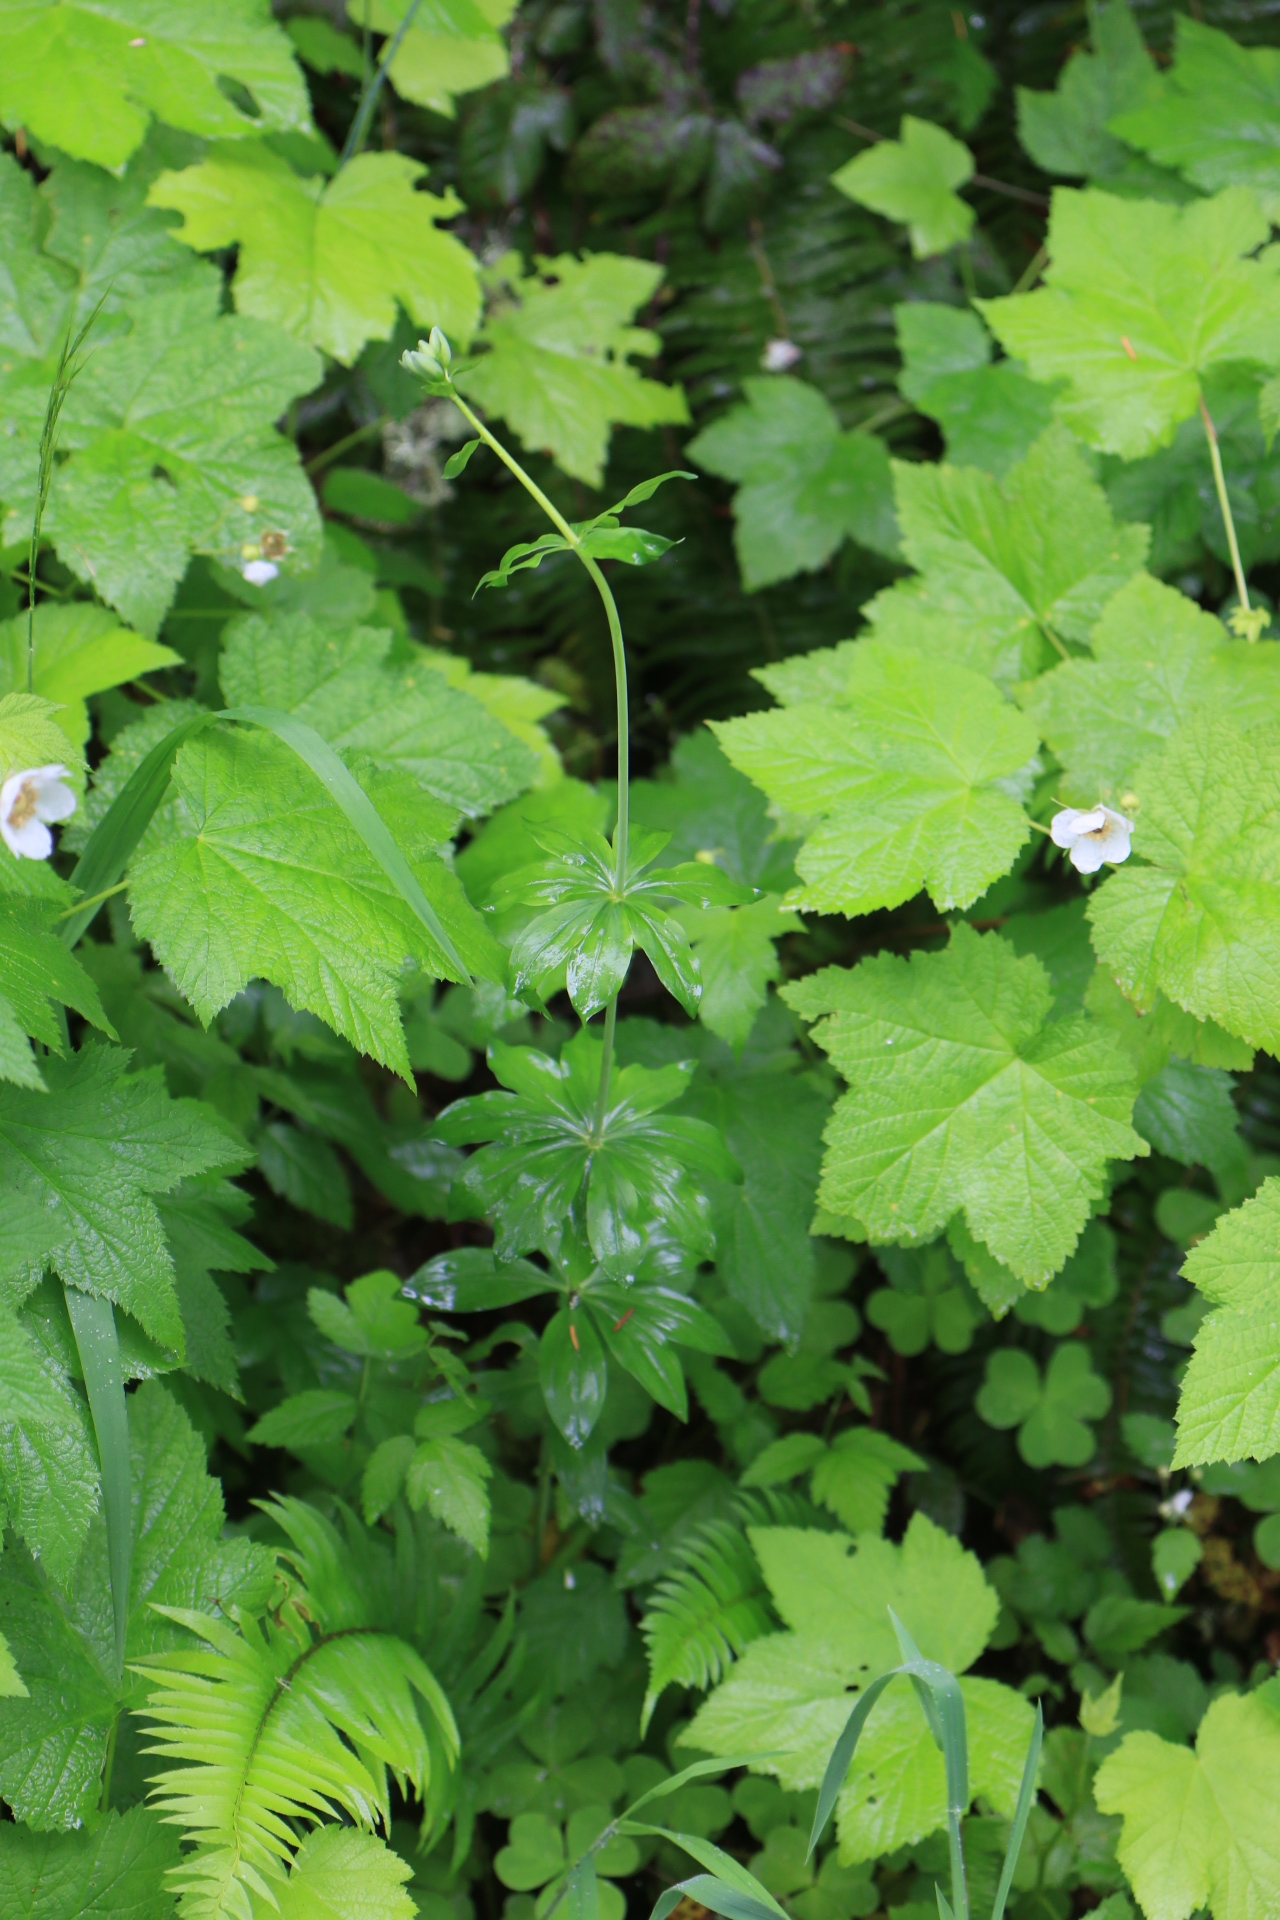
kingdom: Plantae
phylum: Tracheophyta
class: Liliopsida
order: Liliales
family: Liliaceae
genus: Lilium
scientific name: Lilium columbianum
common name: Columbia lily
